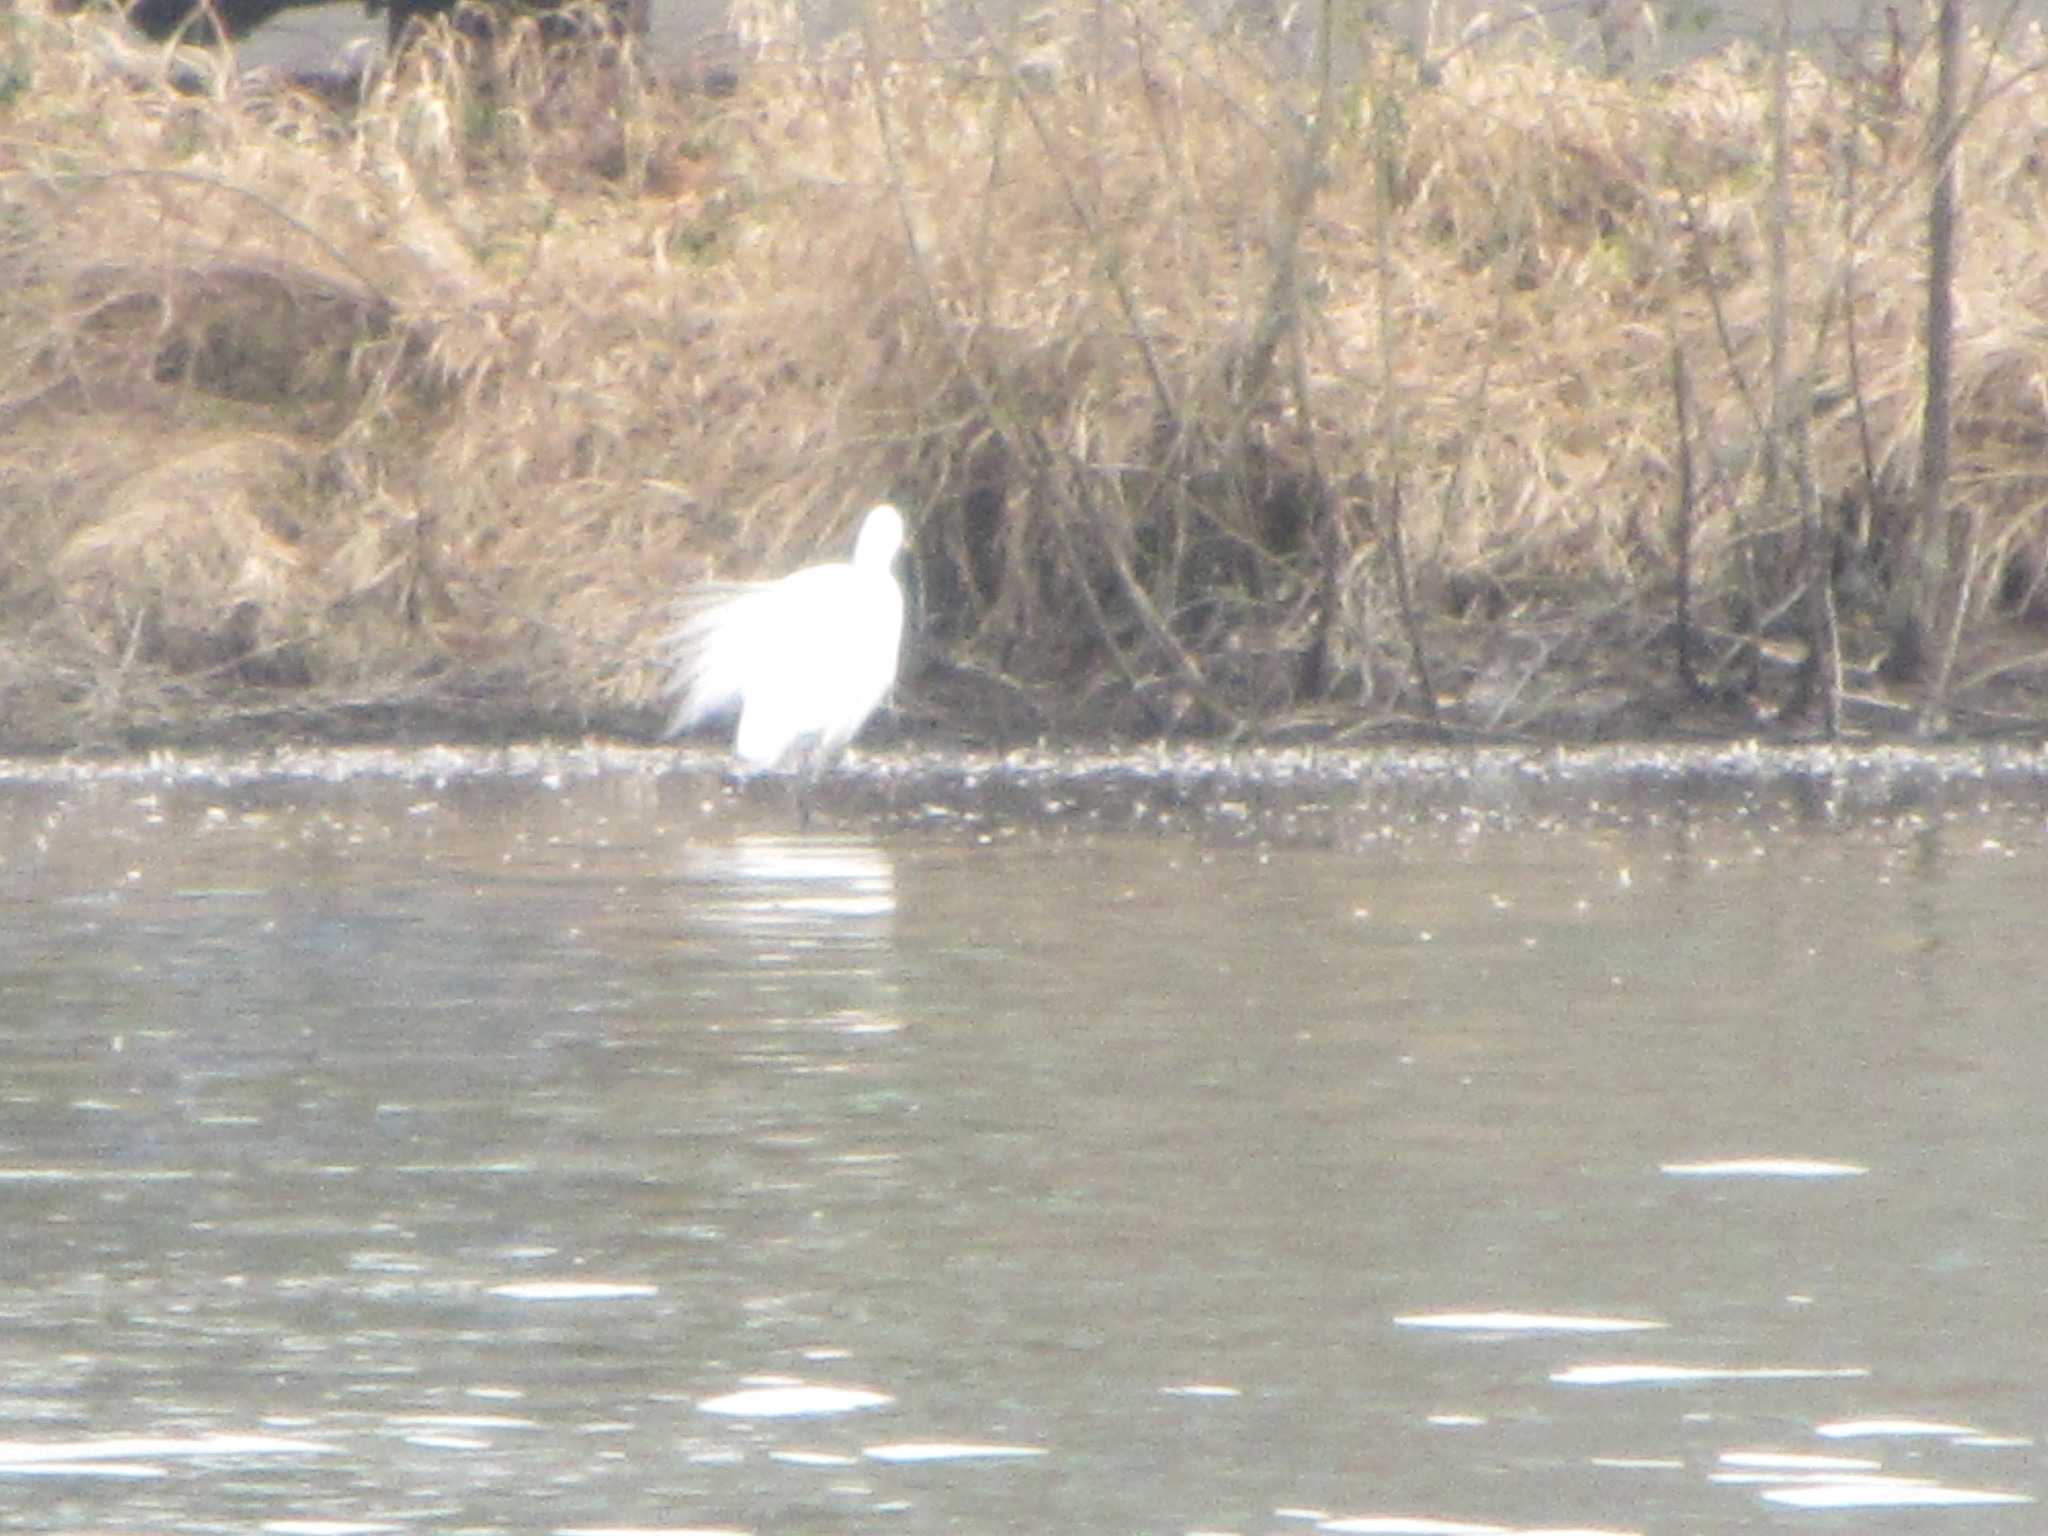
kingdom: Animalia
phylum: Chordata
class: Aves
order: Pelecaniformes
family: Ardeidae
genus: Ardea
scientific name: Ardea alba
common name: Great egret
